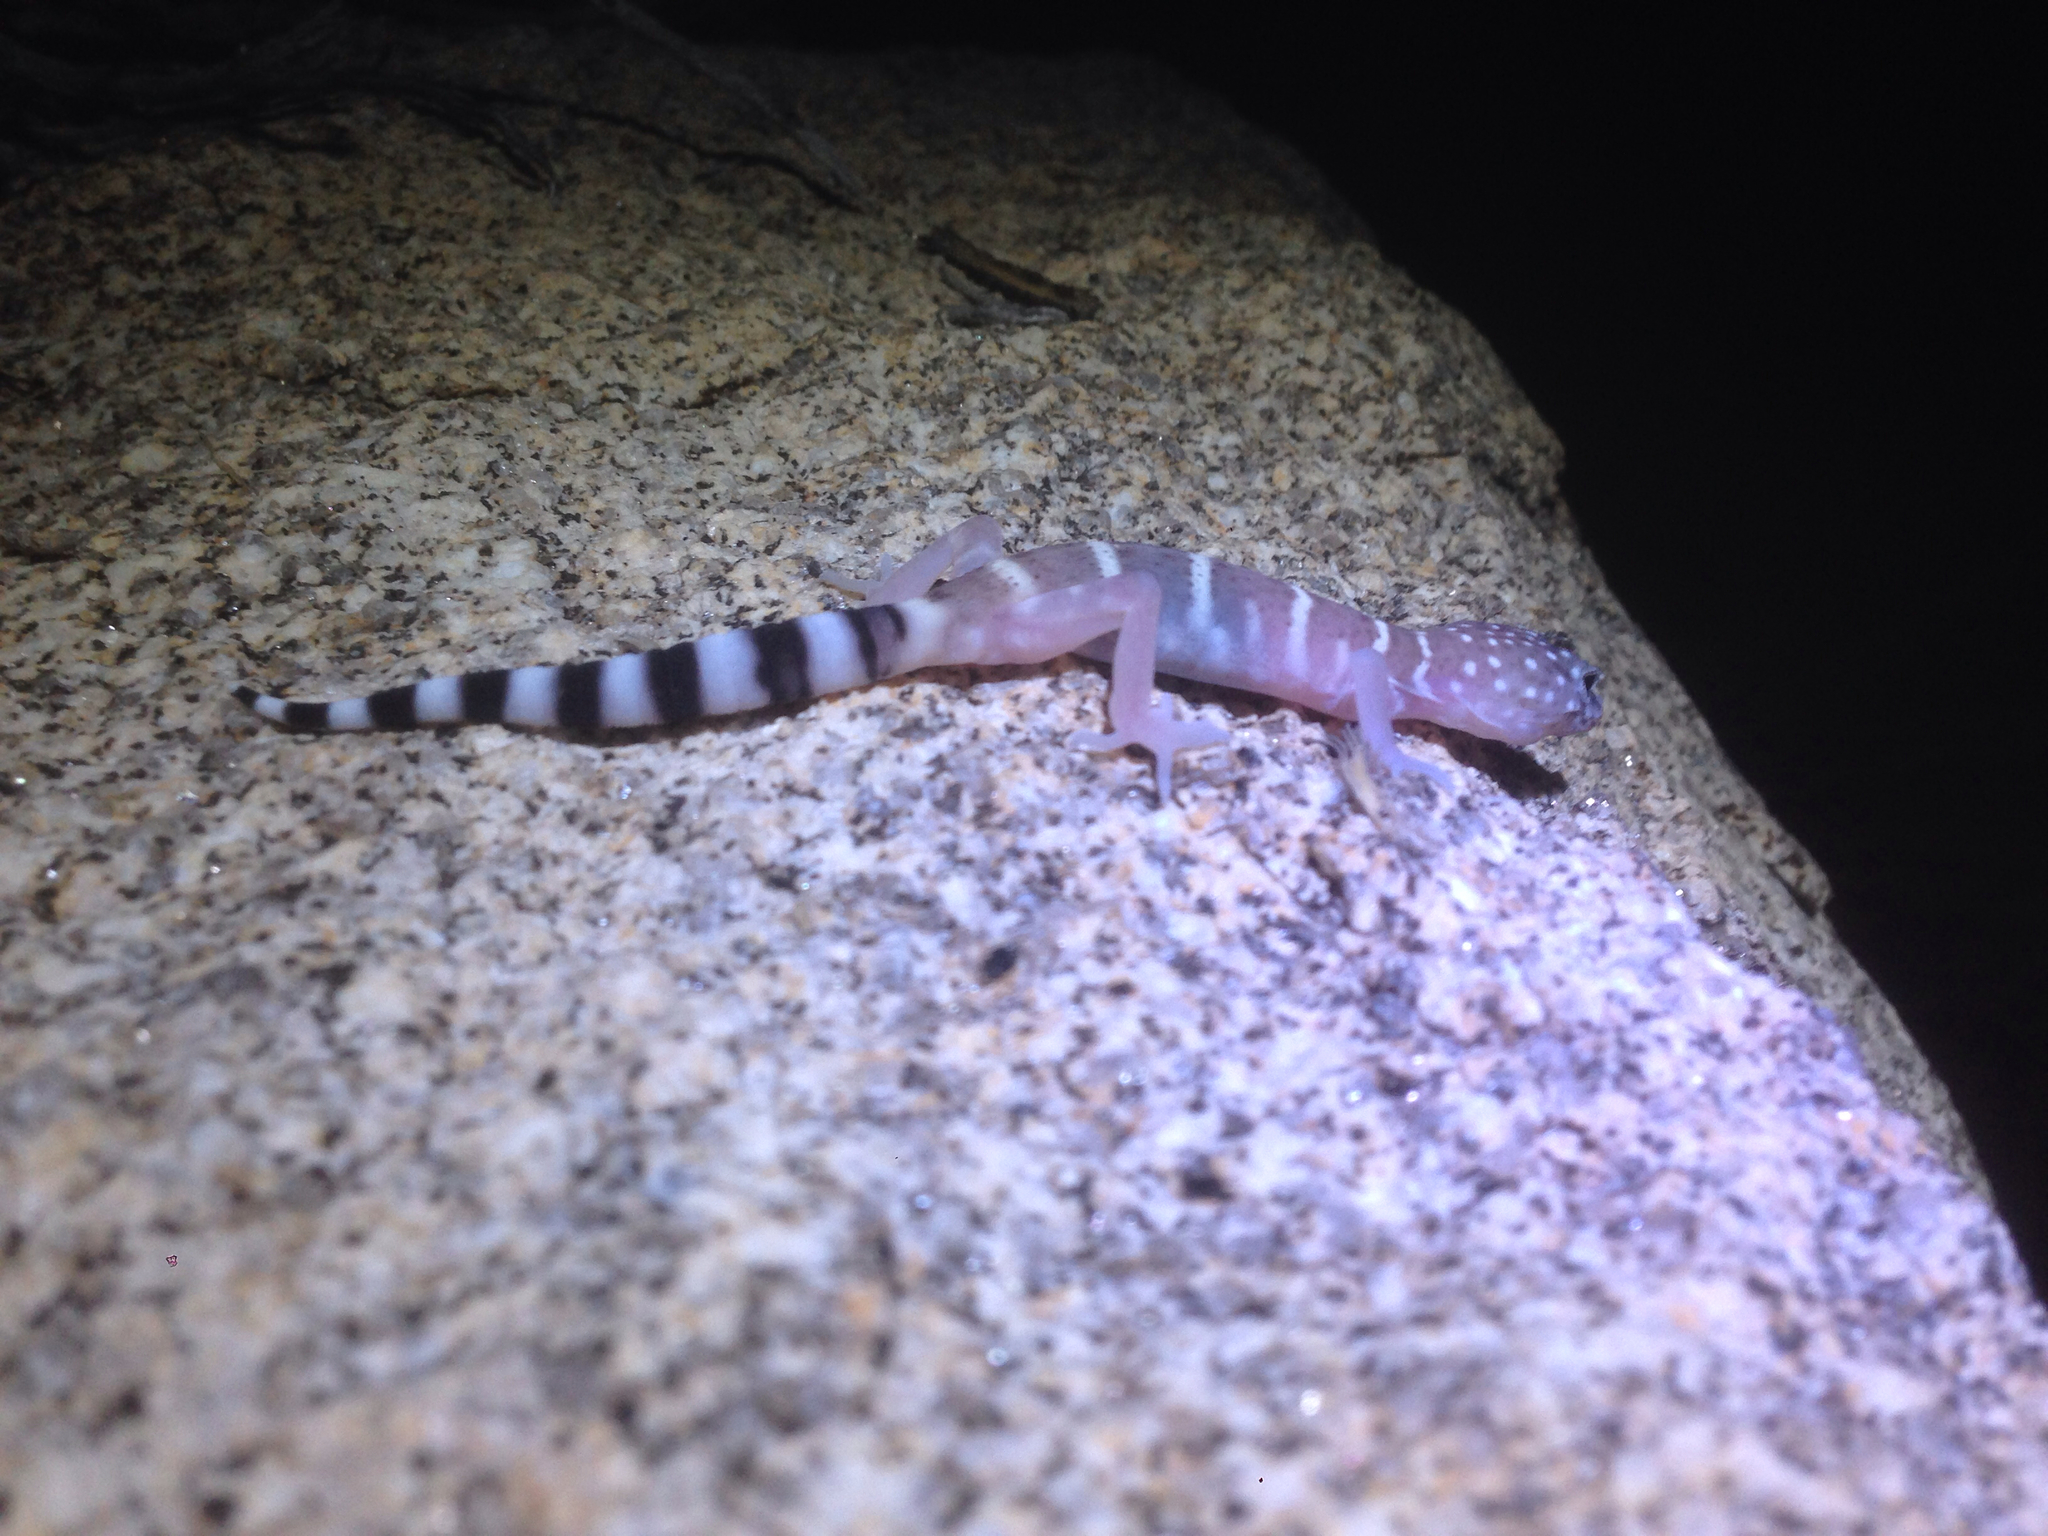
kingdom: Animalia
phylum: Chordata
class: Squamata
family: Eublepharidae
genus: Coleonyx
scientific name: Coleonyx switaki
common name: Switak’s banded gecko
